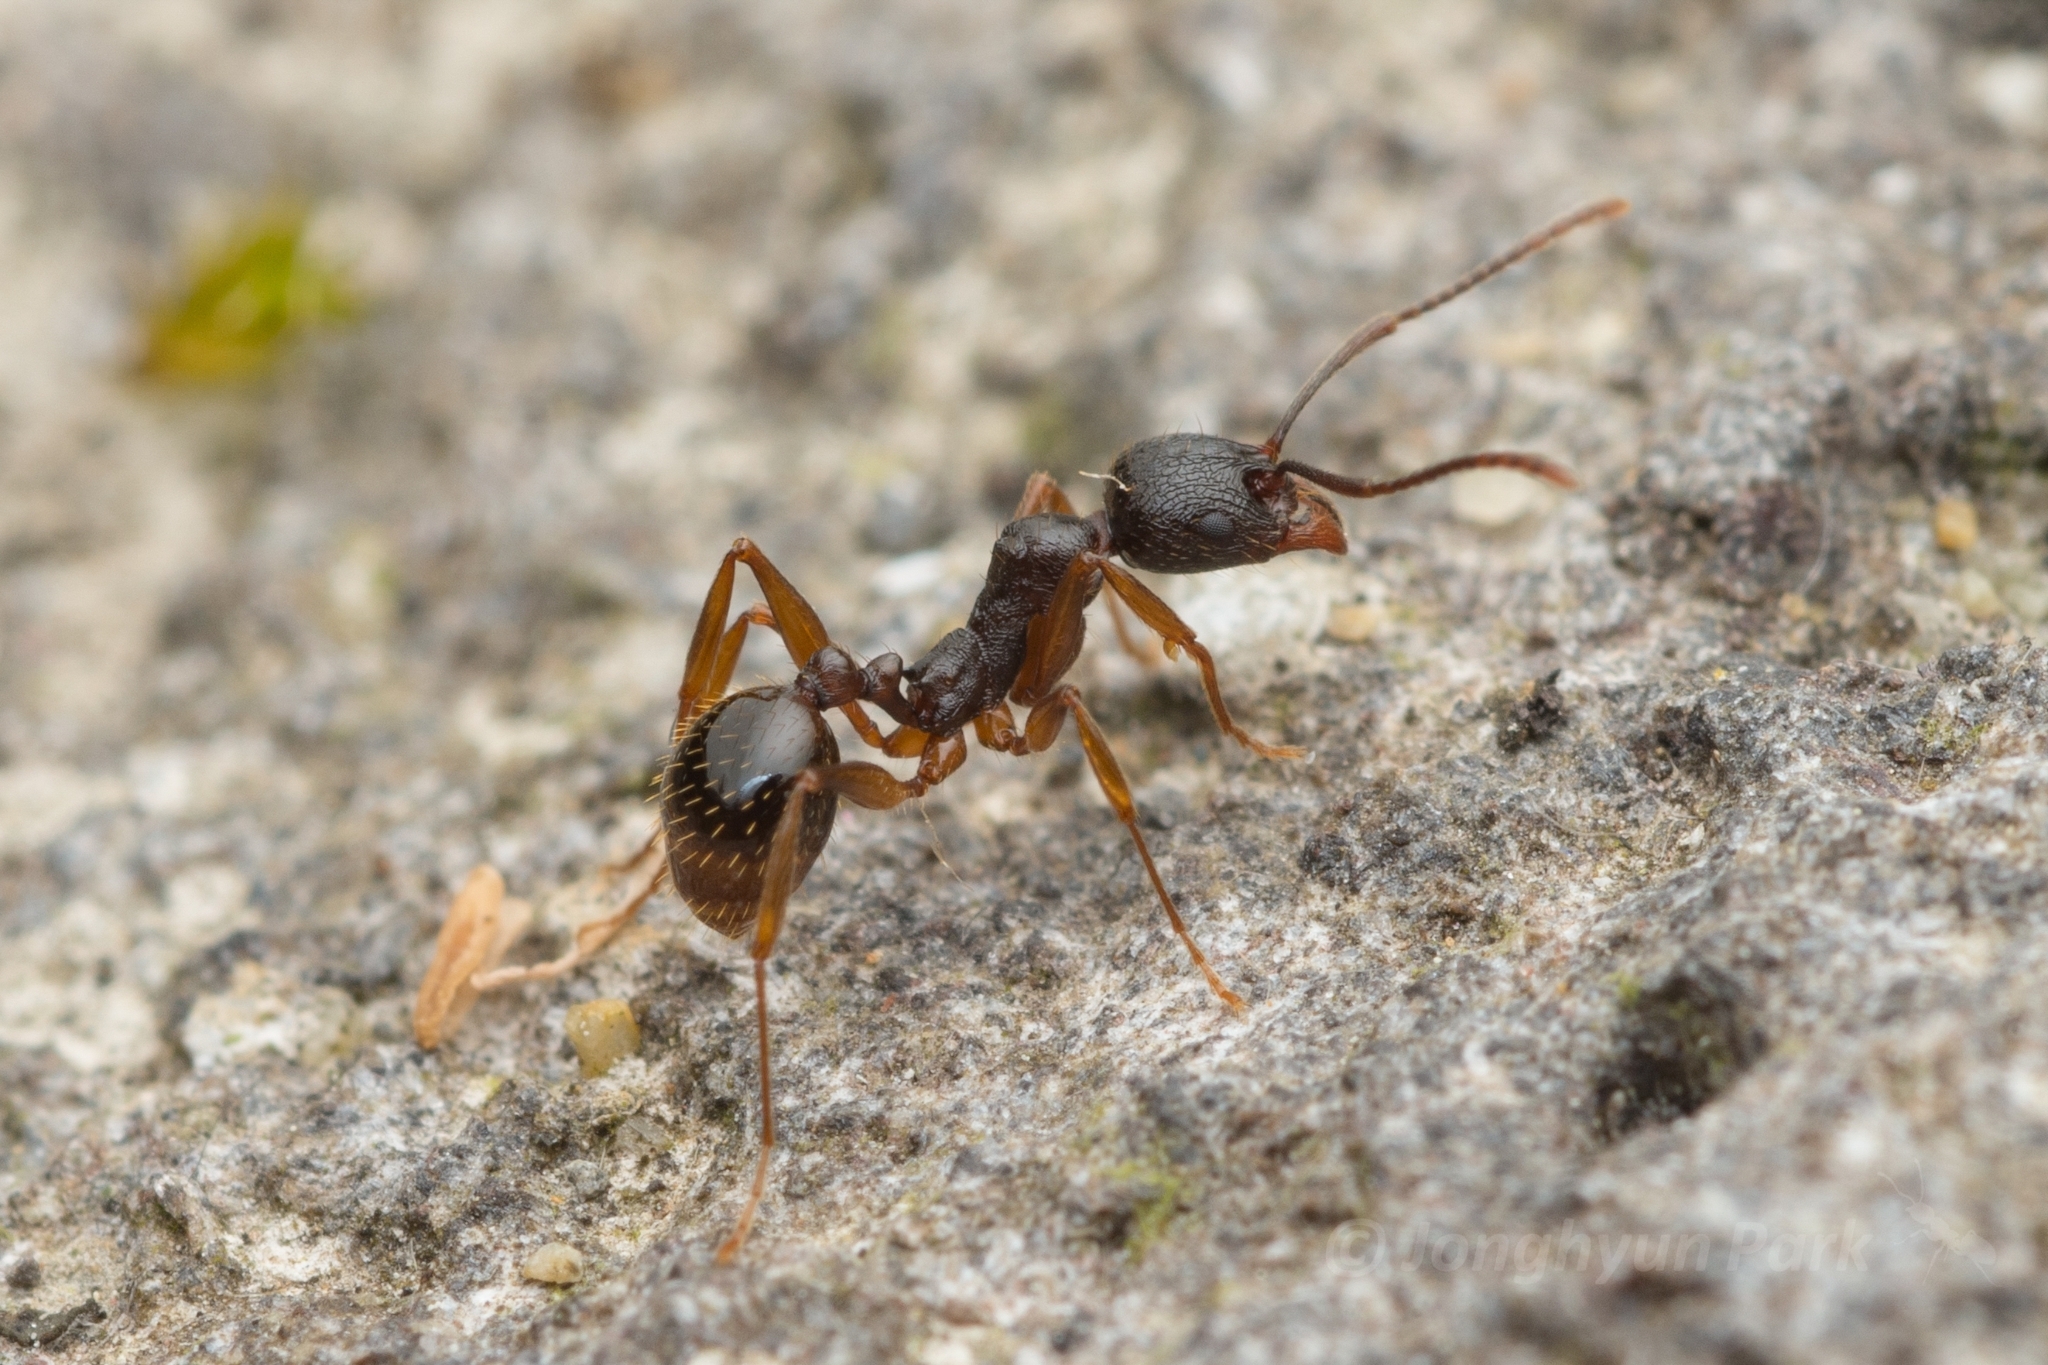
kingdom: Animalia
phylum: Arthropoda
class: Insecta
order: Hymenoptera
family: Formicidae
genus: Aphaenogaster
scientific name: Aphaenogaster japonica
